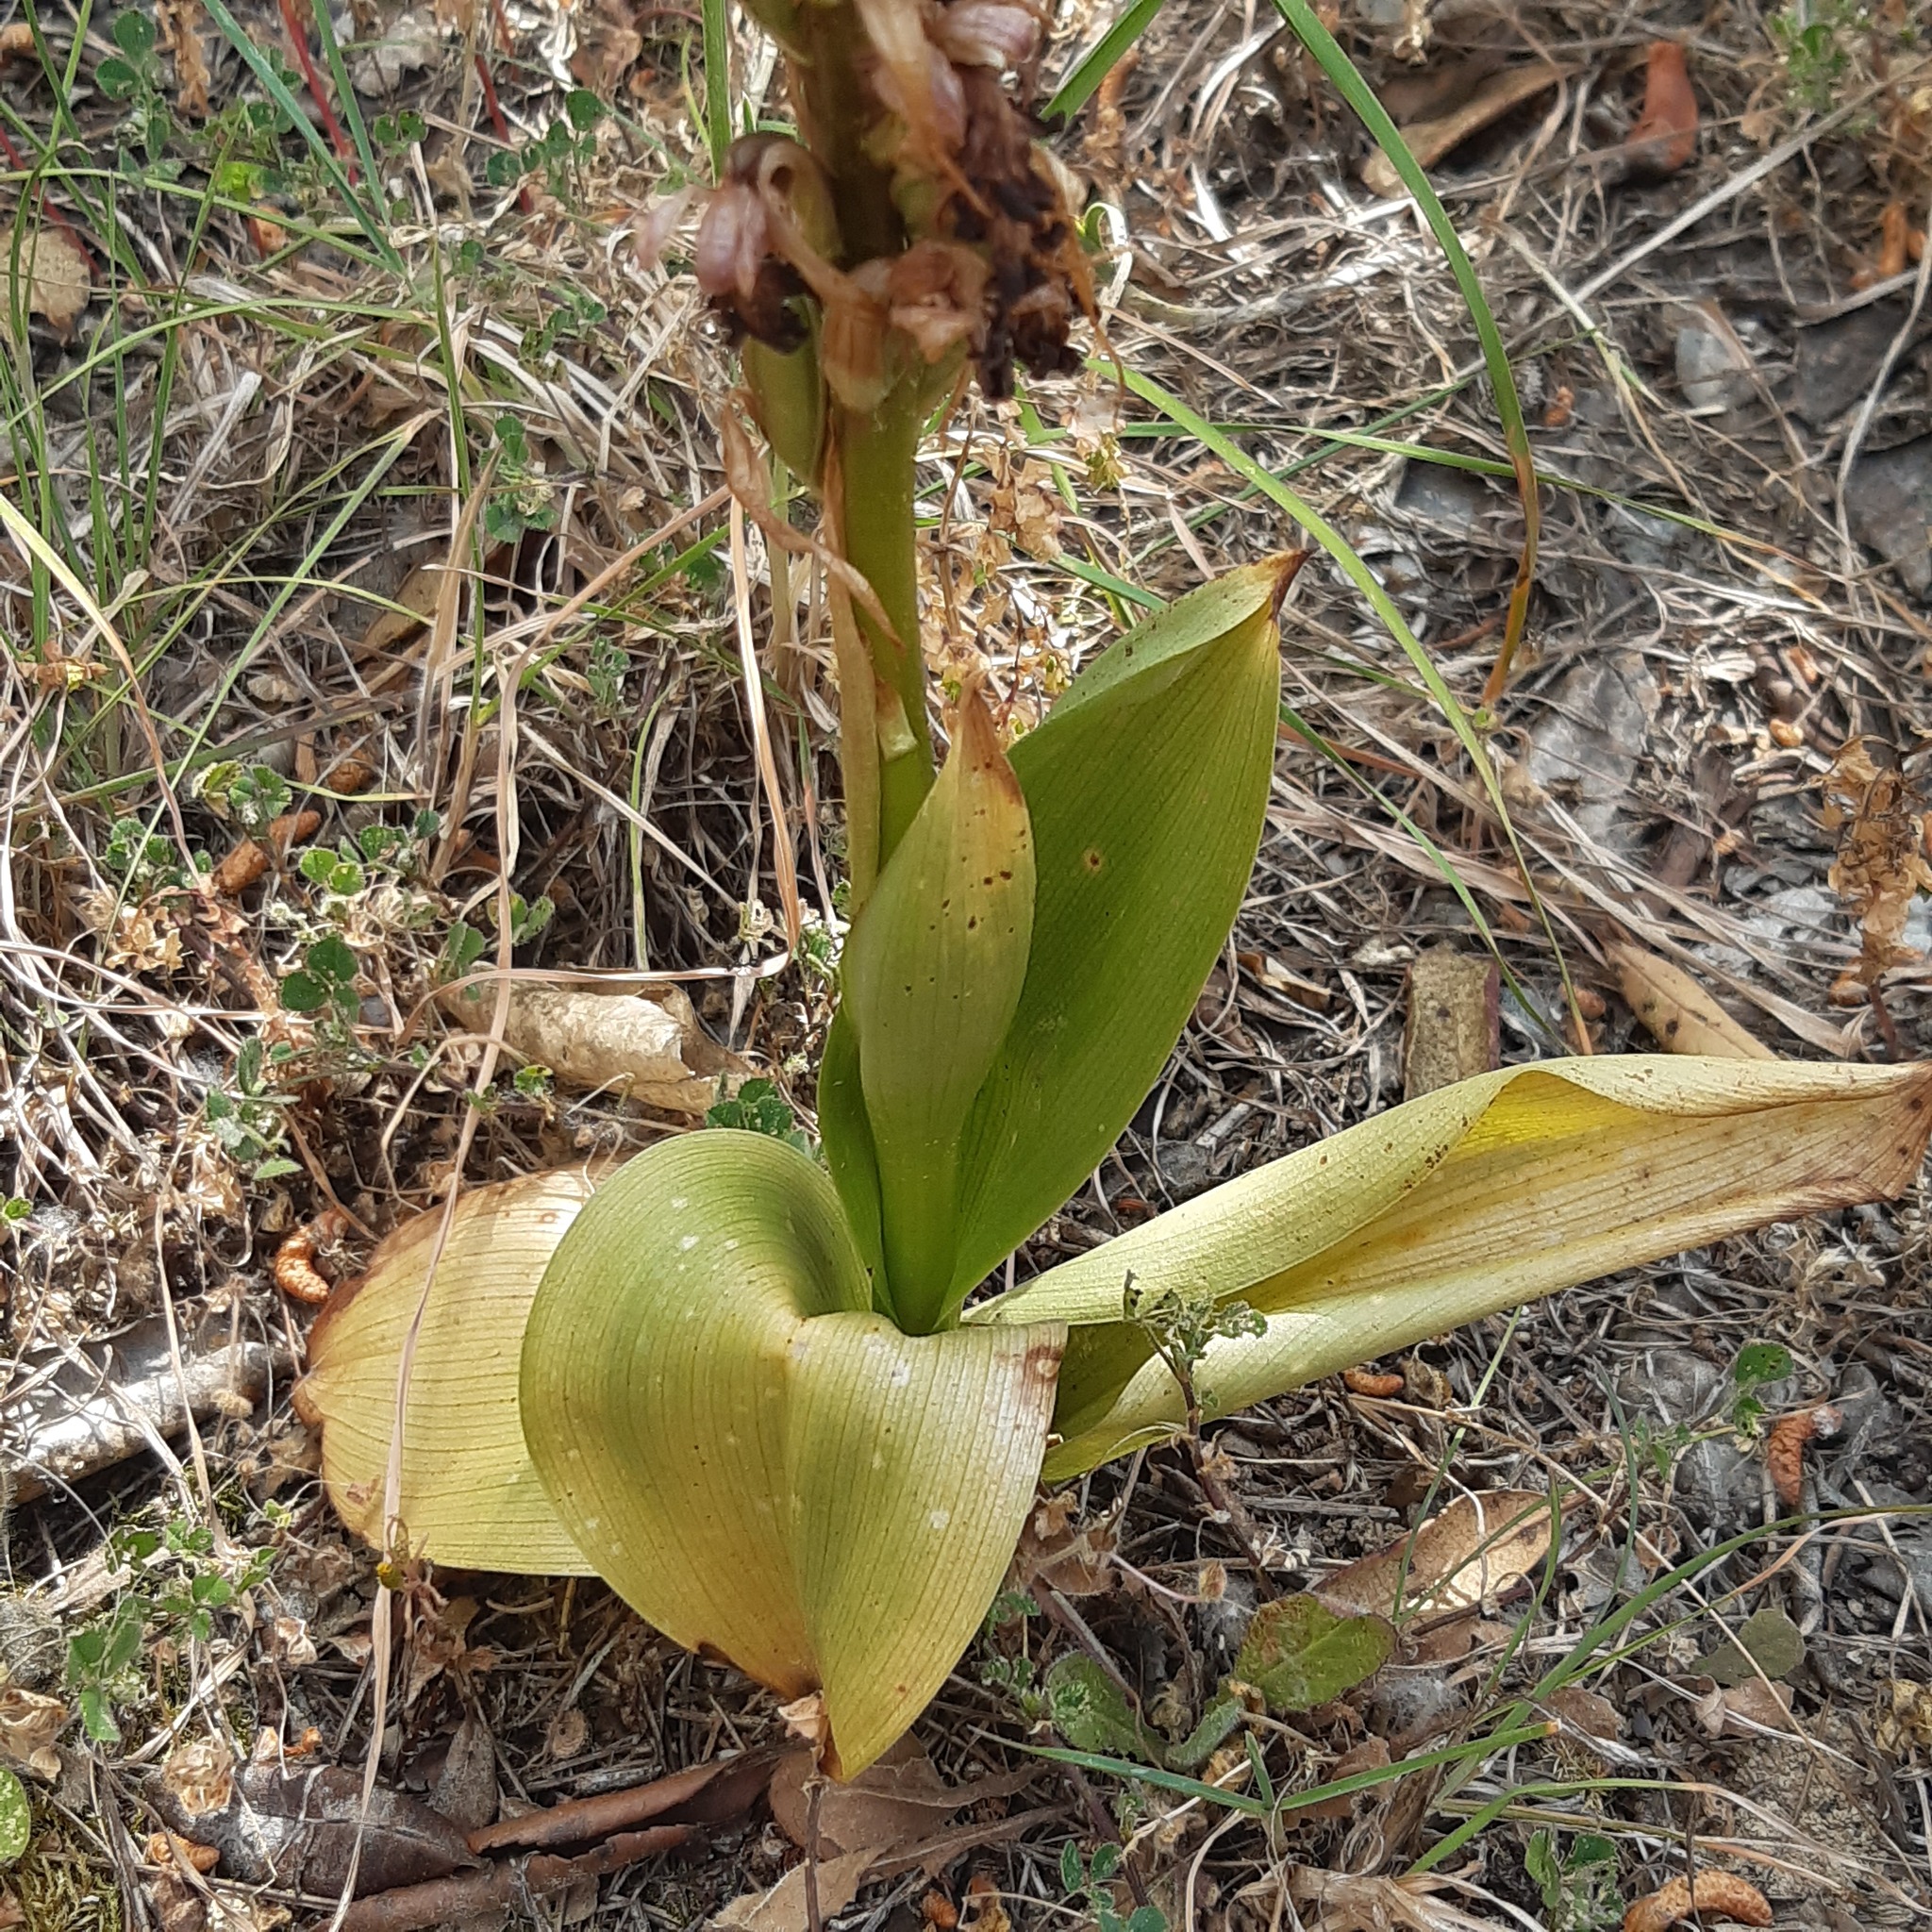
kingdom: Plantae
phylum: Tracheophyta
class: Liliopsida
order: Asparagales
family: Orchidaceae
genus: Himantoglossum
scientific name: Himantoglossum robertianum
